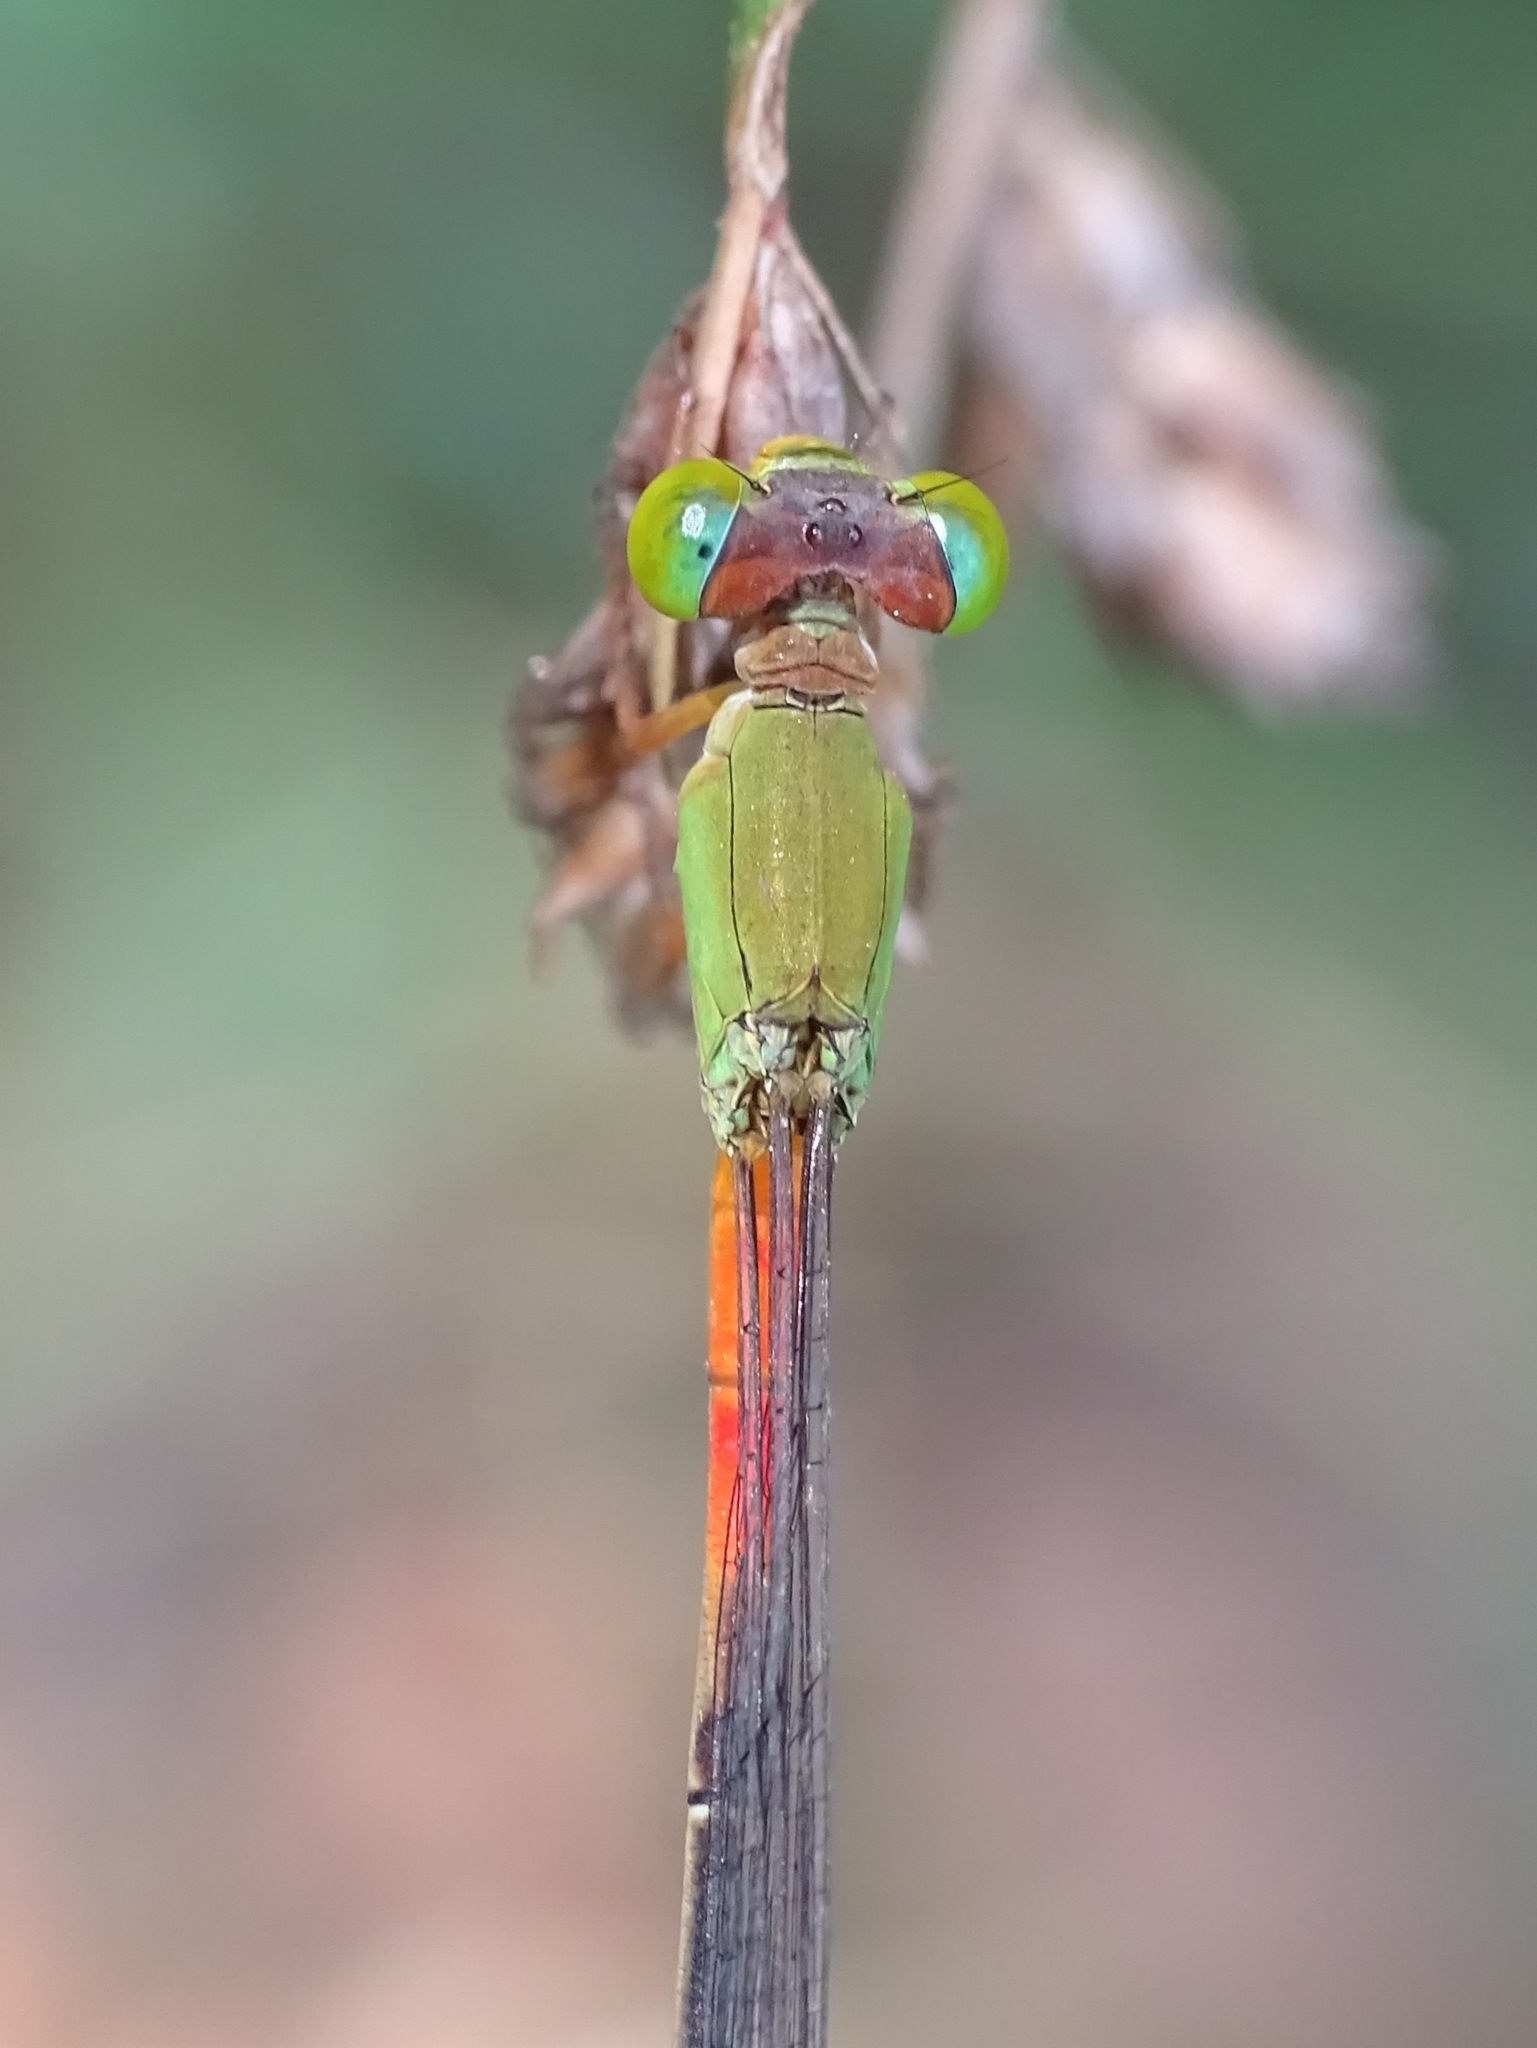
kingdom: Animalia
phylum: Arthropoda
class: Insecta
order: Odonata
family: Coenagrionidae
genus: Ceriagrion
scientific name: Ceriagrion cerinorubellum
